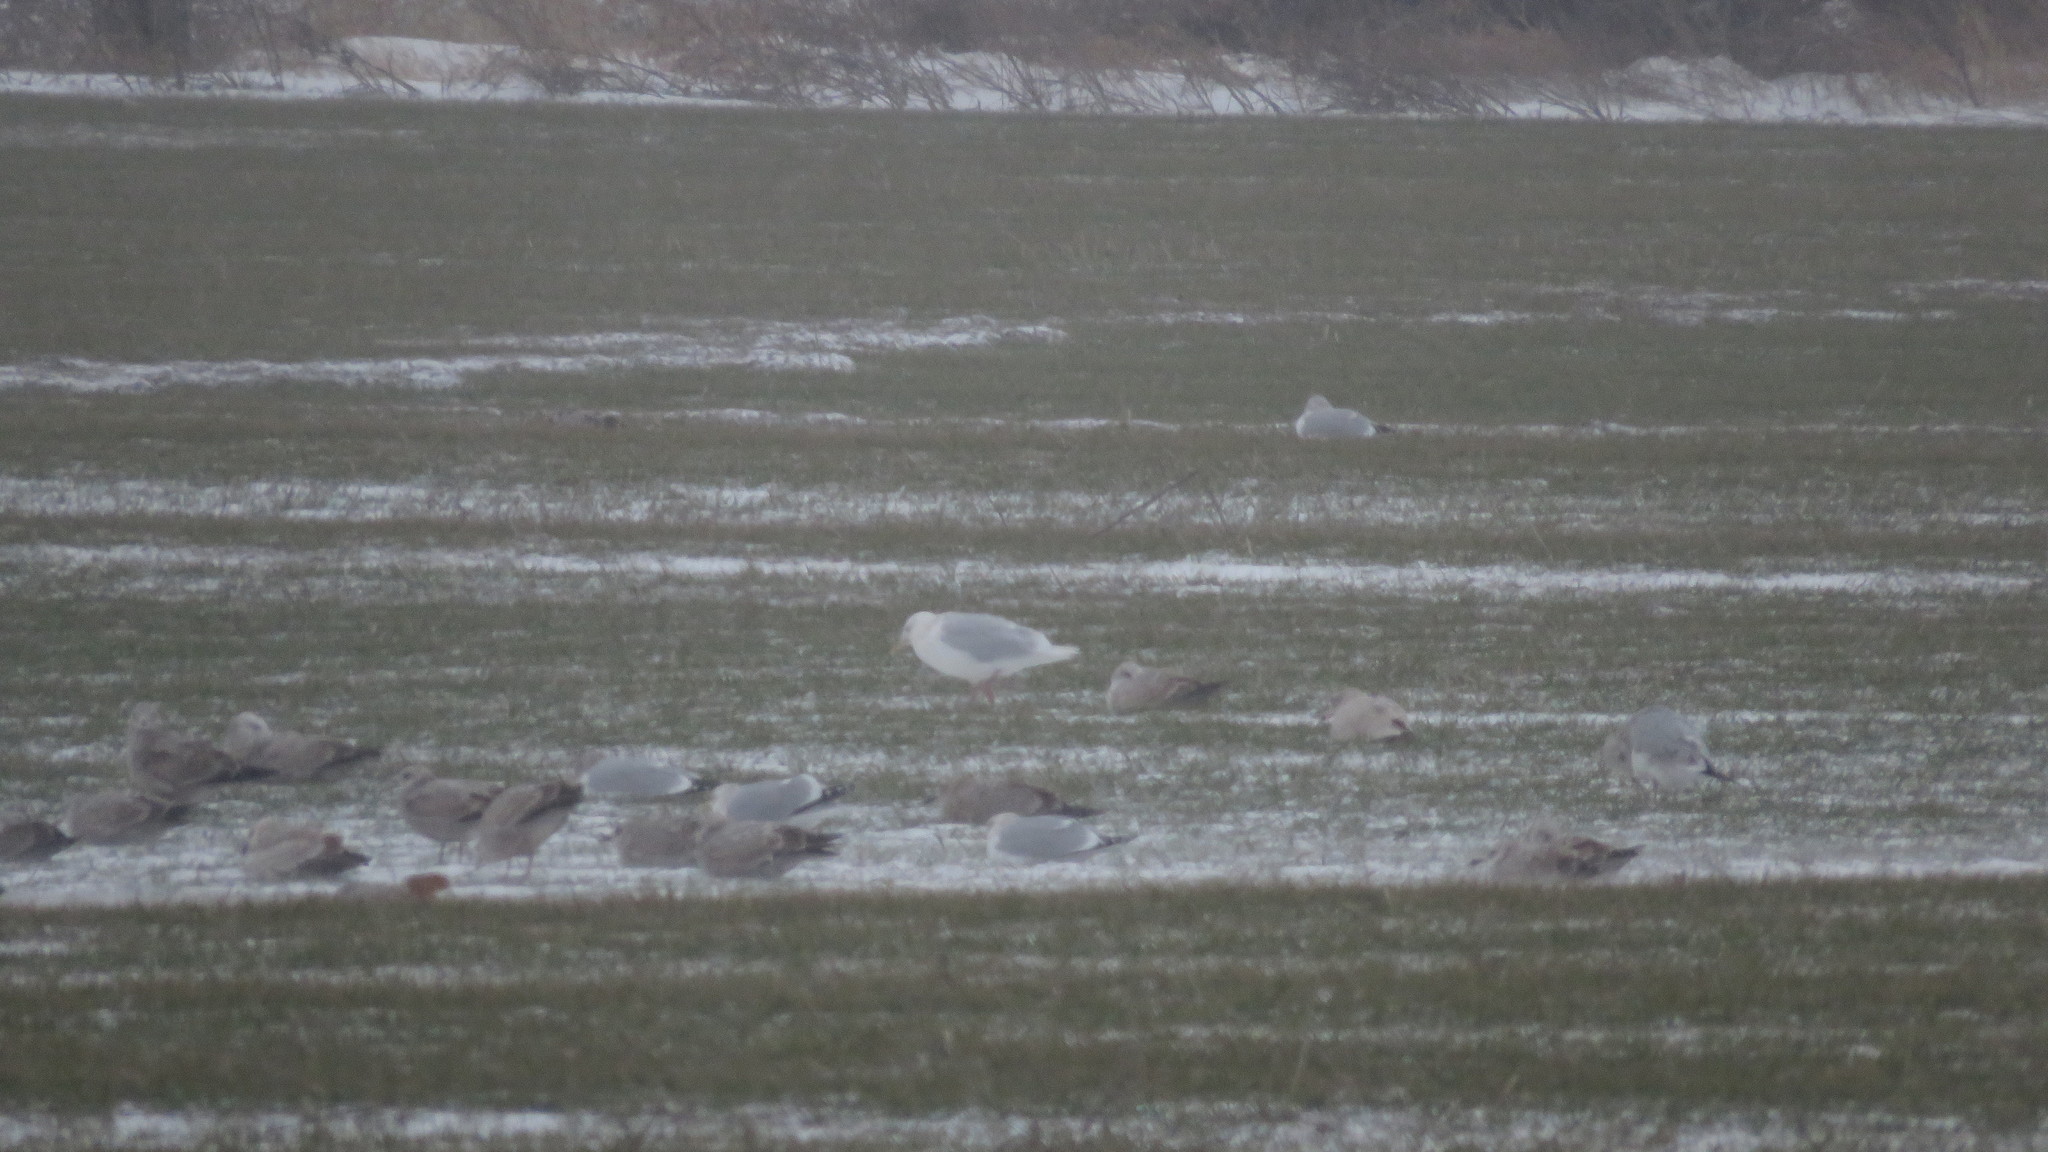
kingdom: Animalia
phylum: Chordata
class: Aves
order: Charadriiformes
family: Laridae
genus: Larus
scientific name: Larus hyperboreus
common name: Glaucous gull
